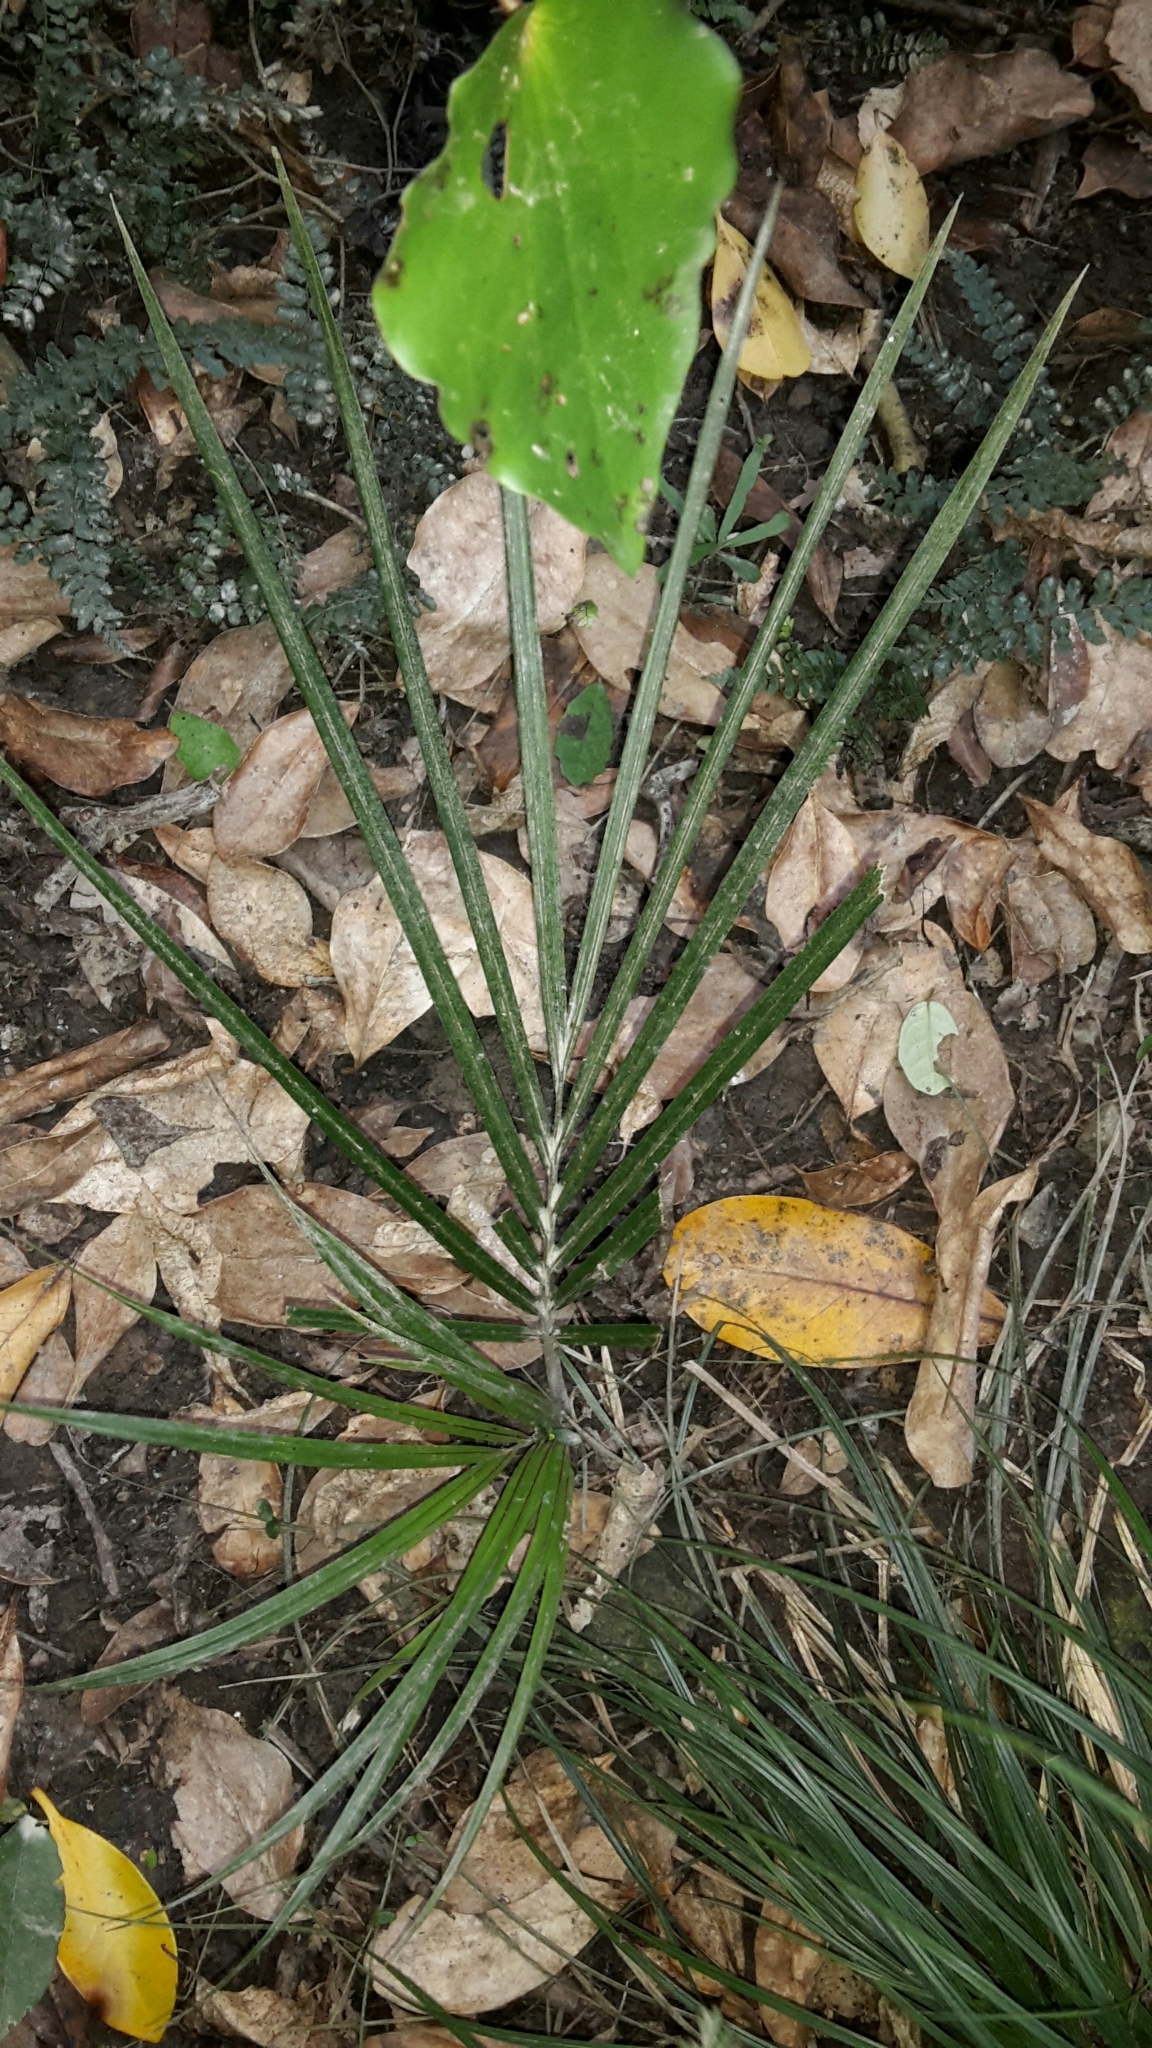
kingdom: Plantae
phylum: Tracheophyta
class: Liliopsida
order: Arecales
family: Arecaceae
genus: Rhopalostylis
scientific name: Rhopalostylis sapida
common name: Feather-duster palm
